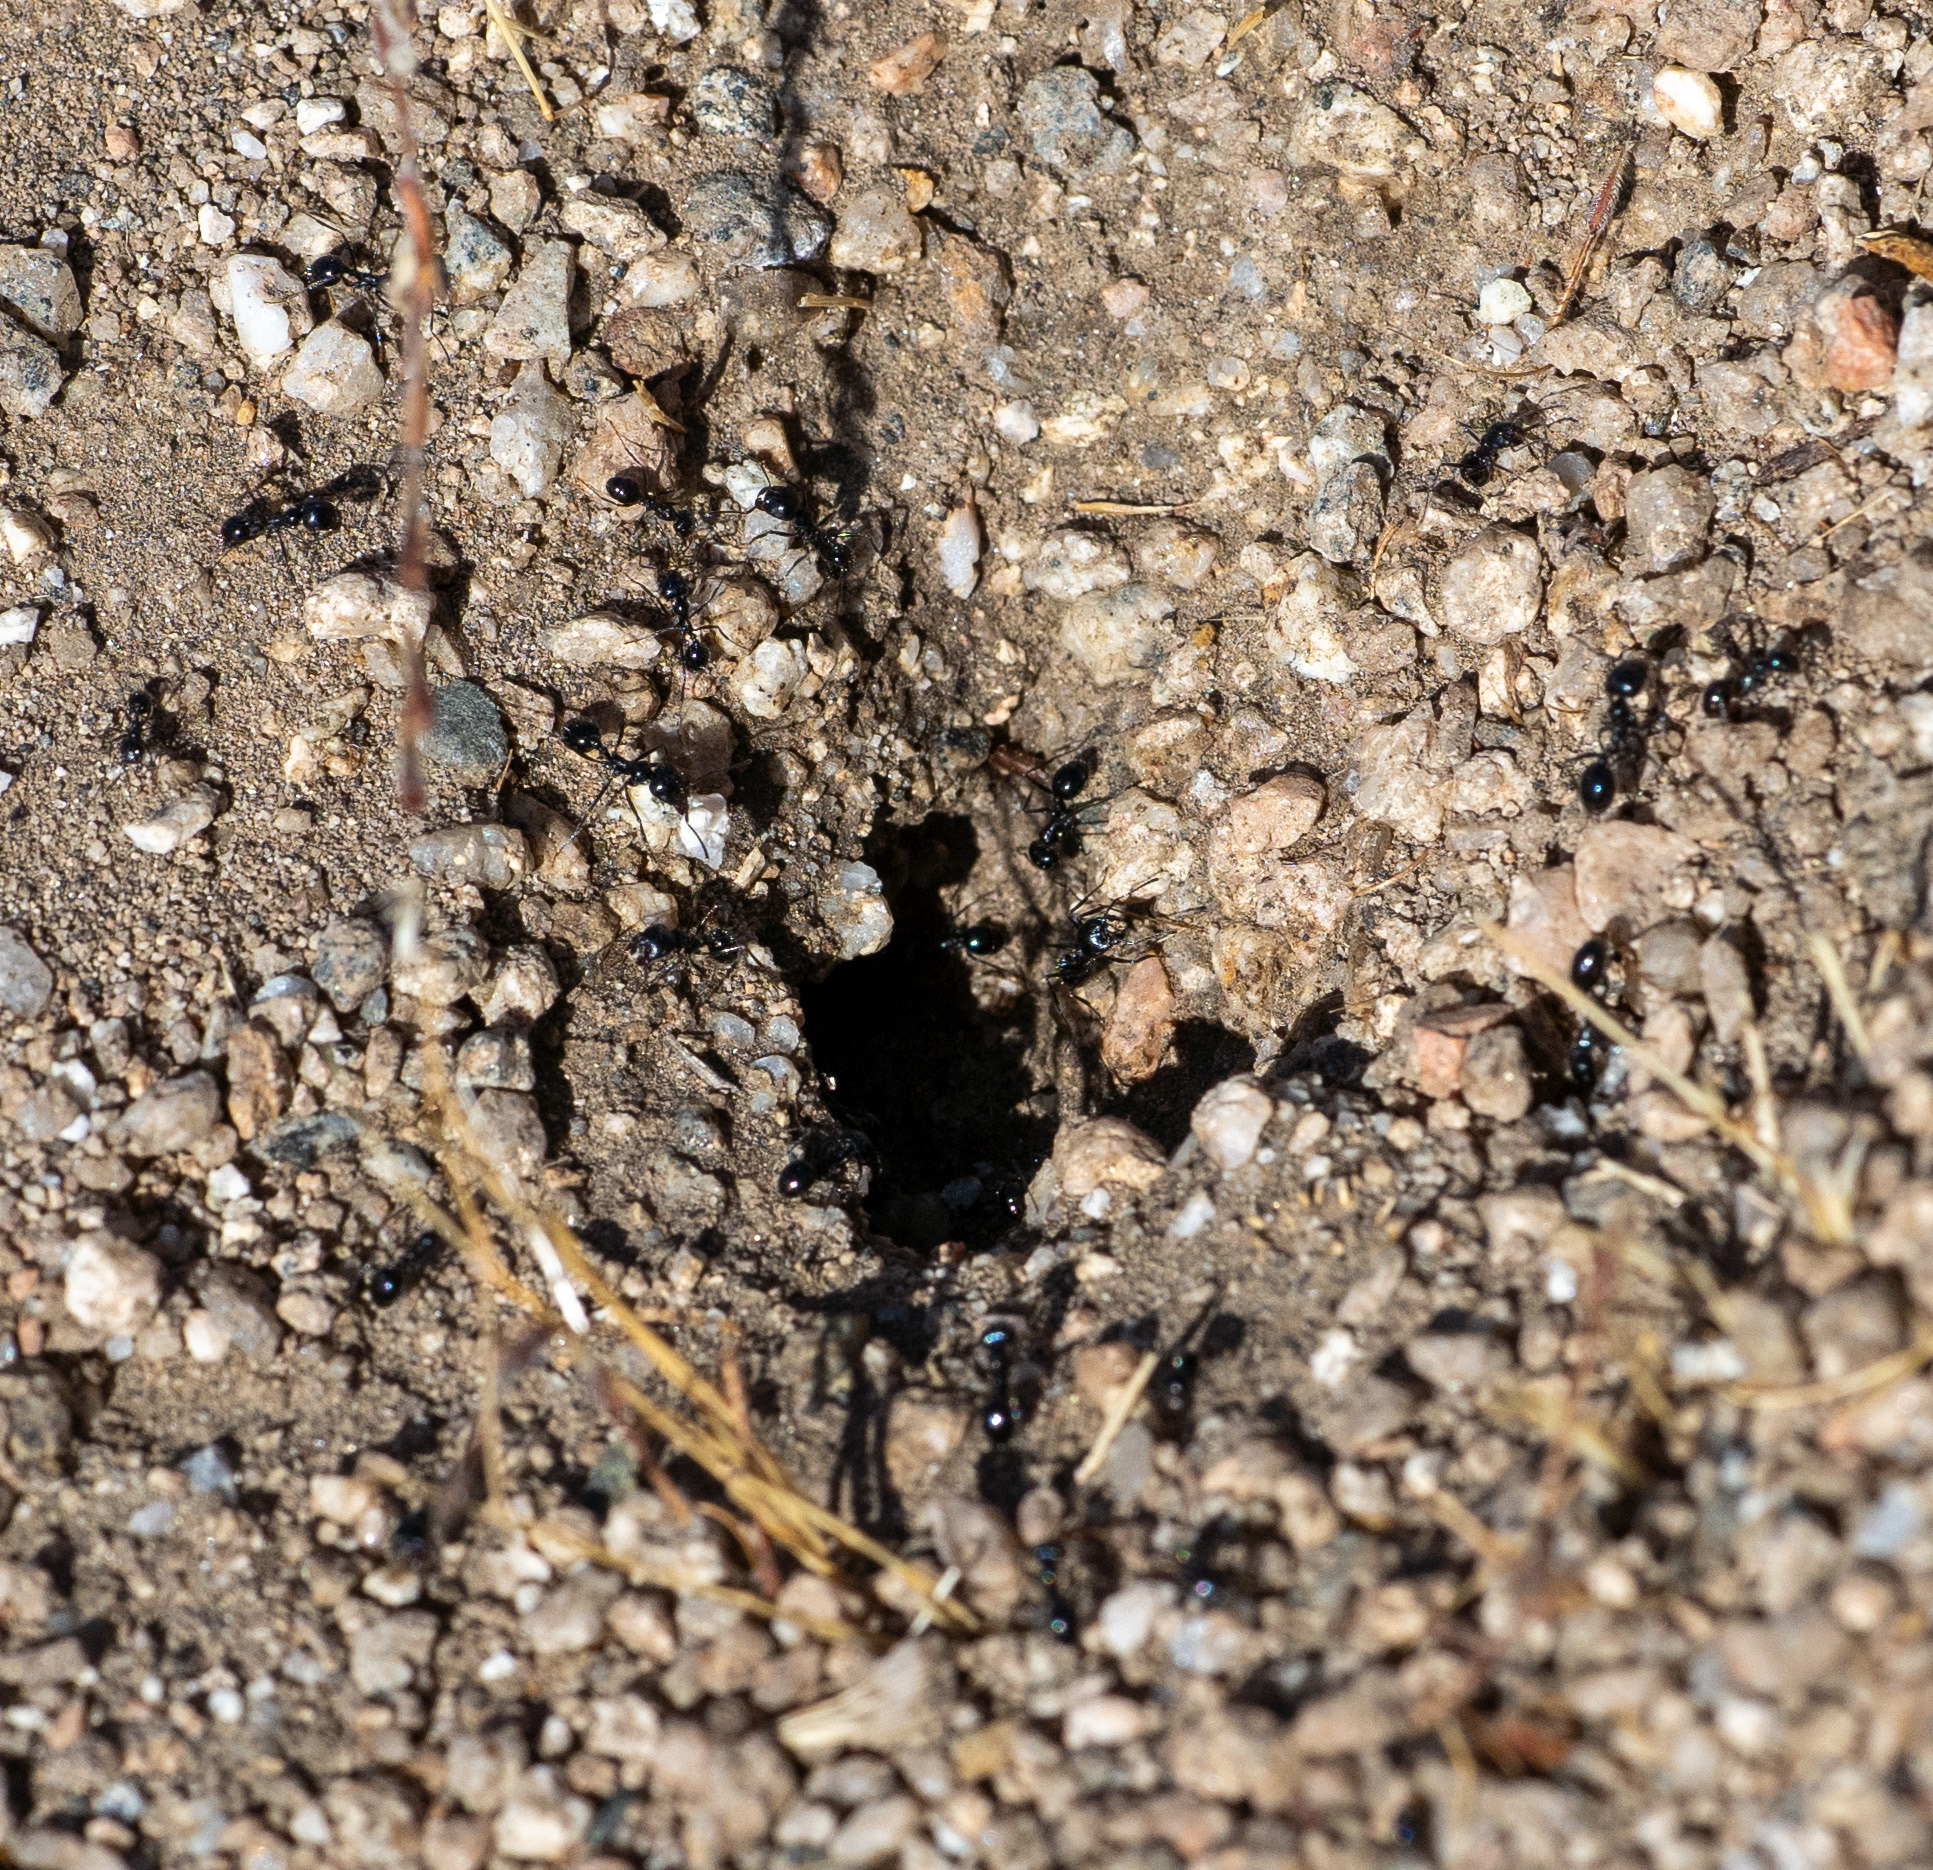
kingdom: Animalia
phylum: Arthropoda
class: Insecta
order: Hymenoptera
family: Formicidae
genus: Messor
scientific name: Messor pergandei
